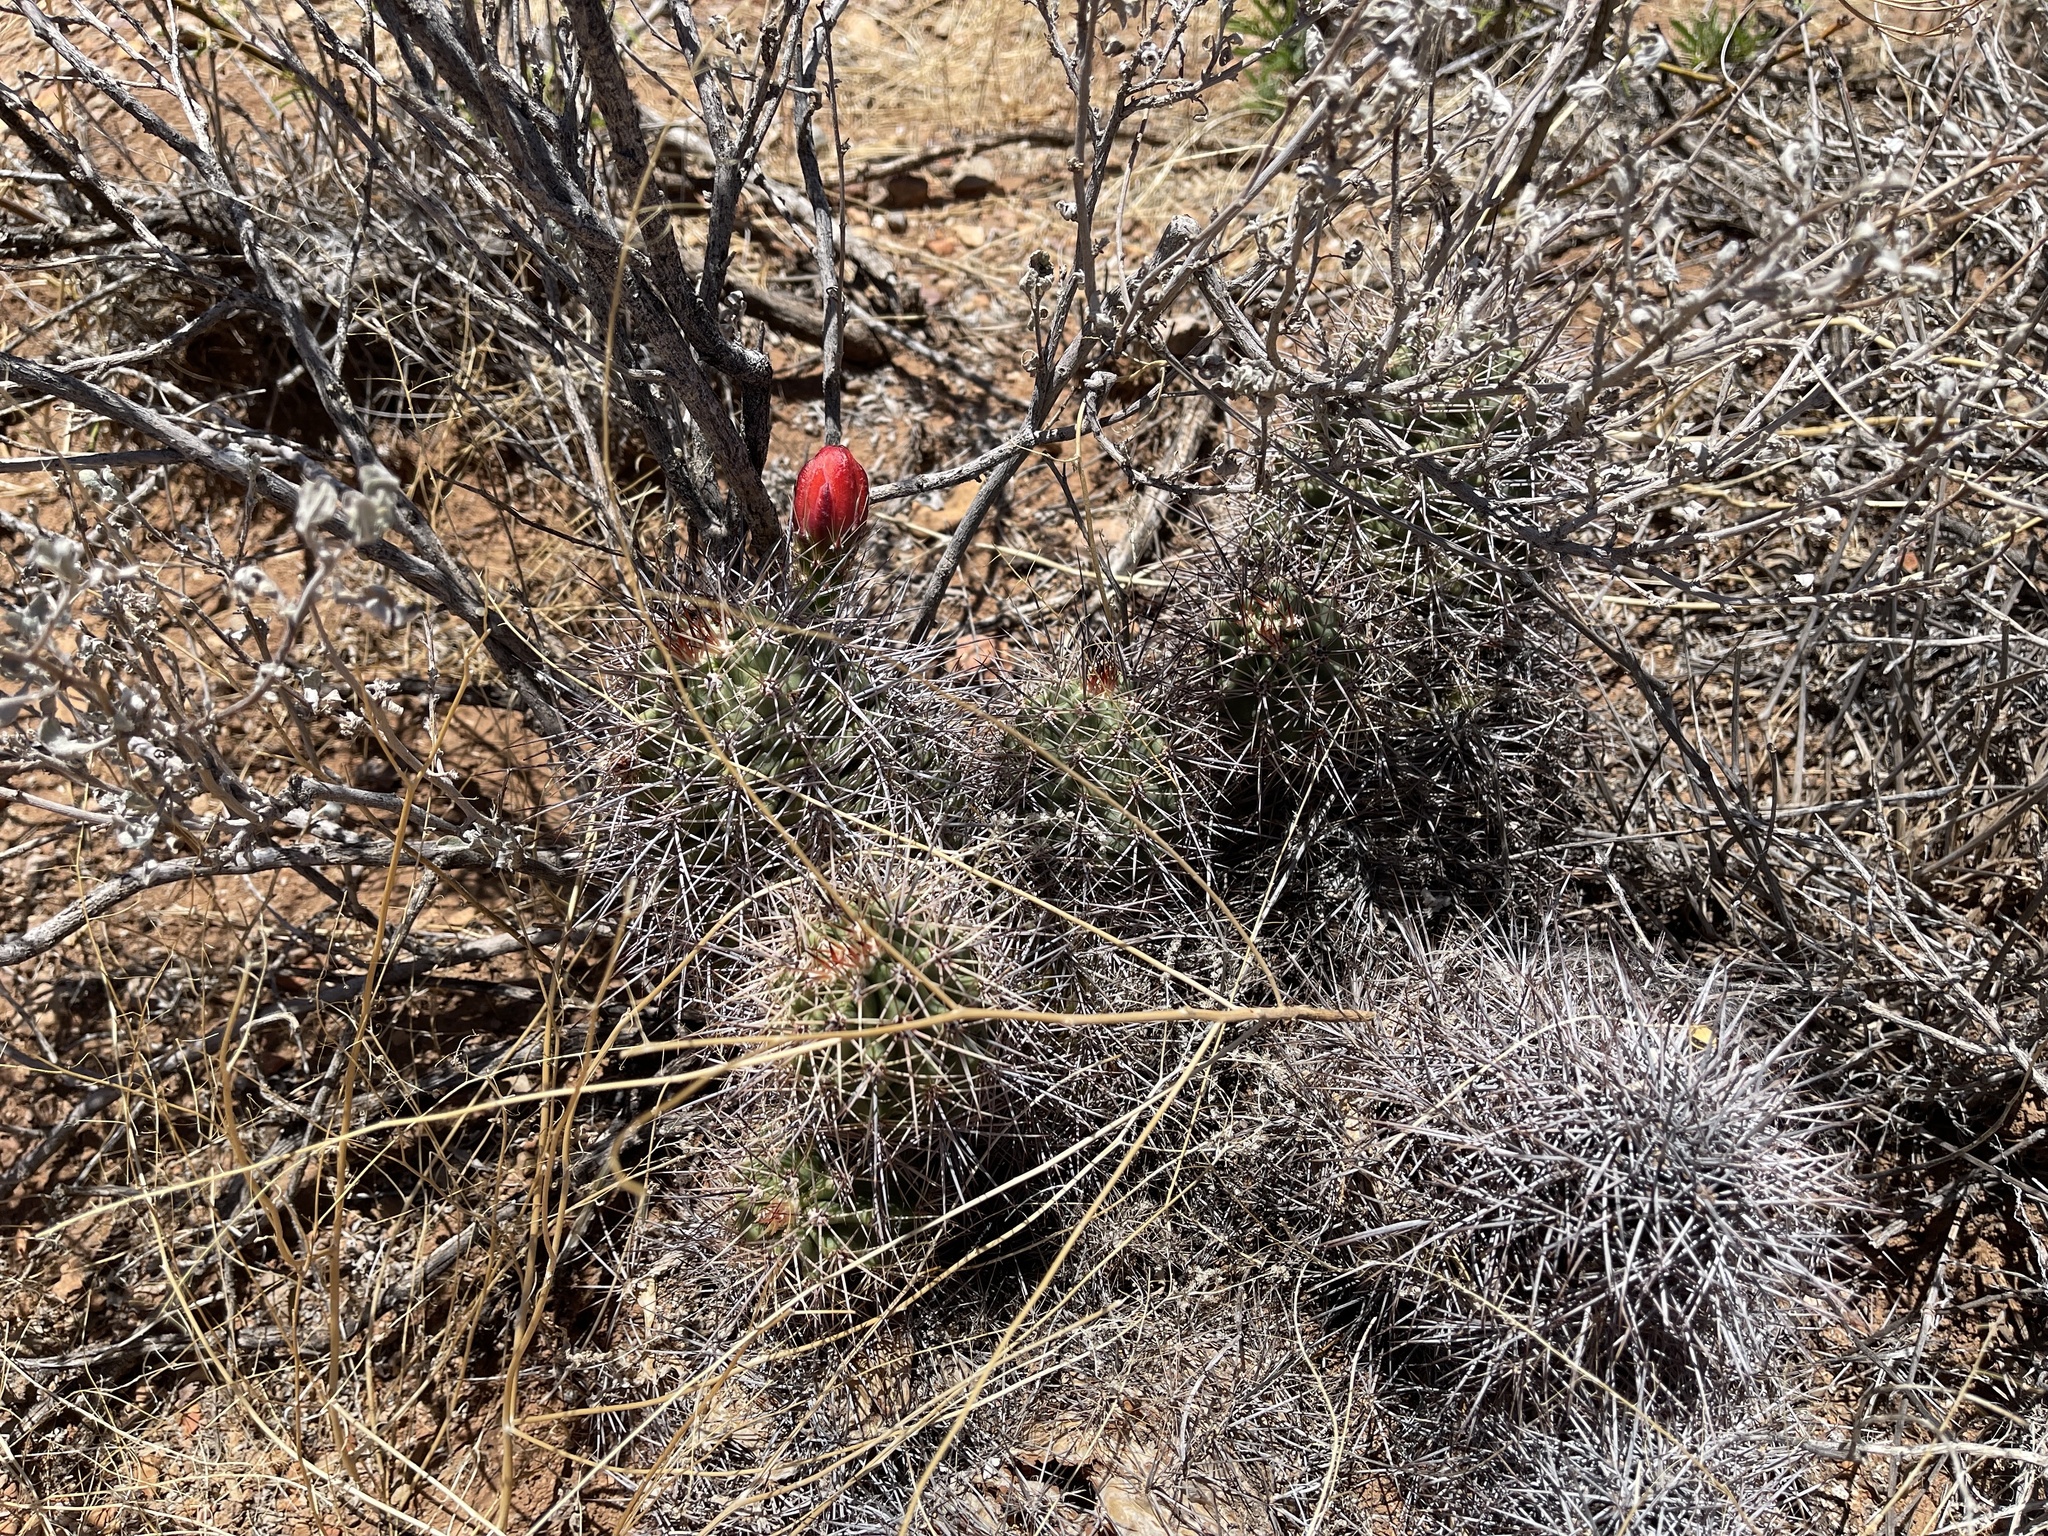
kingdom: Plantae
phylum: Tracheophyta
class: Magnoliopsida
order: Caryophyllales
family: Cactaceae
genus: Echinocereus
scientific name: Echinocereus coccineus
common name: Scarlet hedgehog cactus
